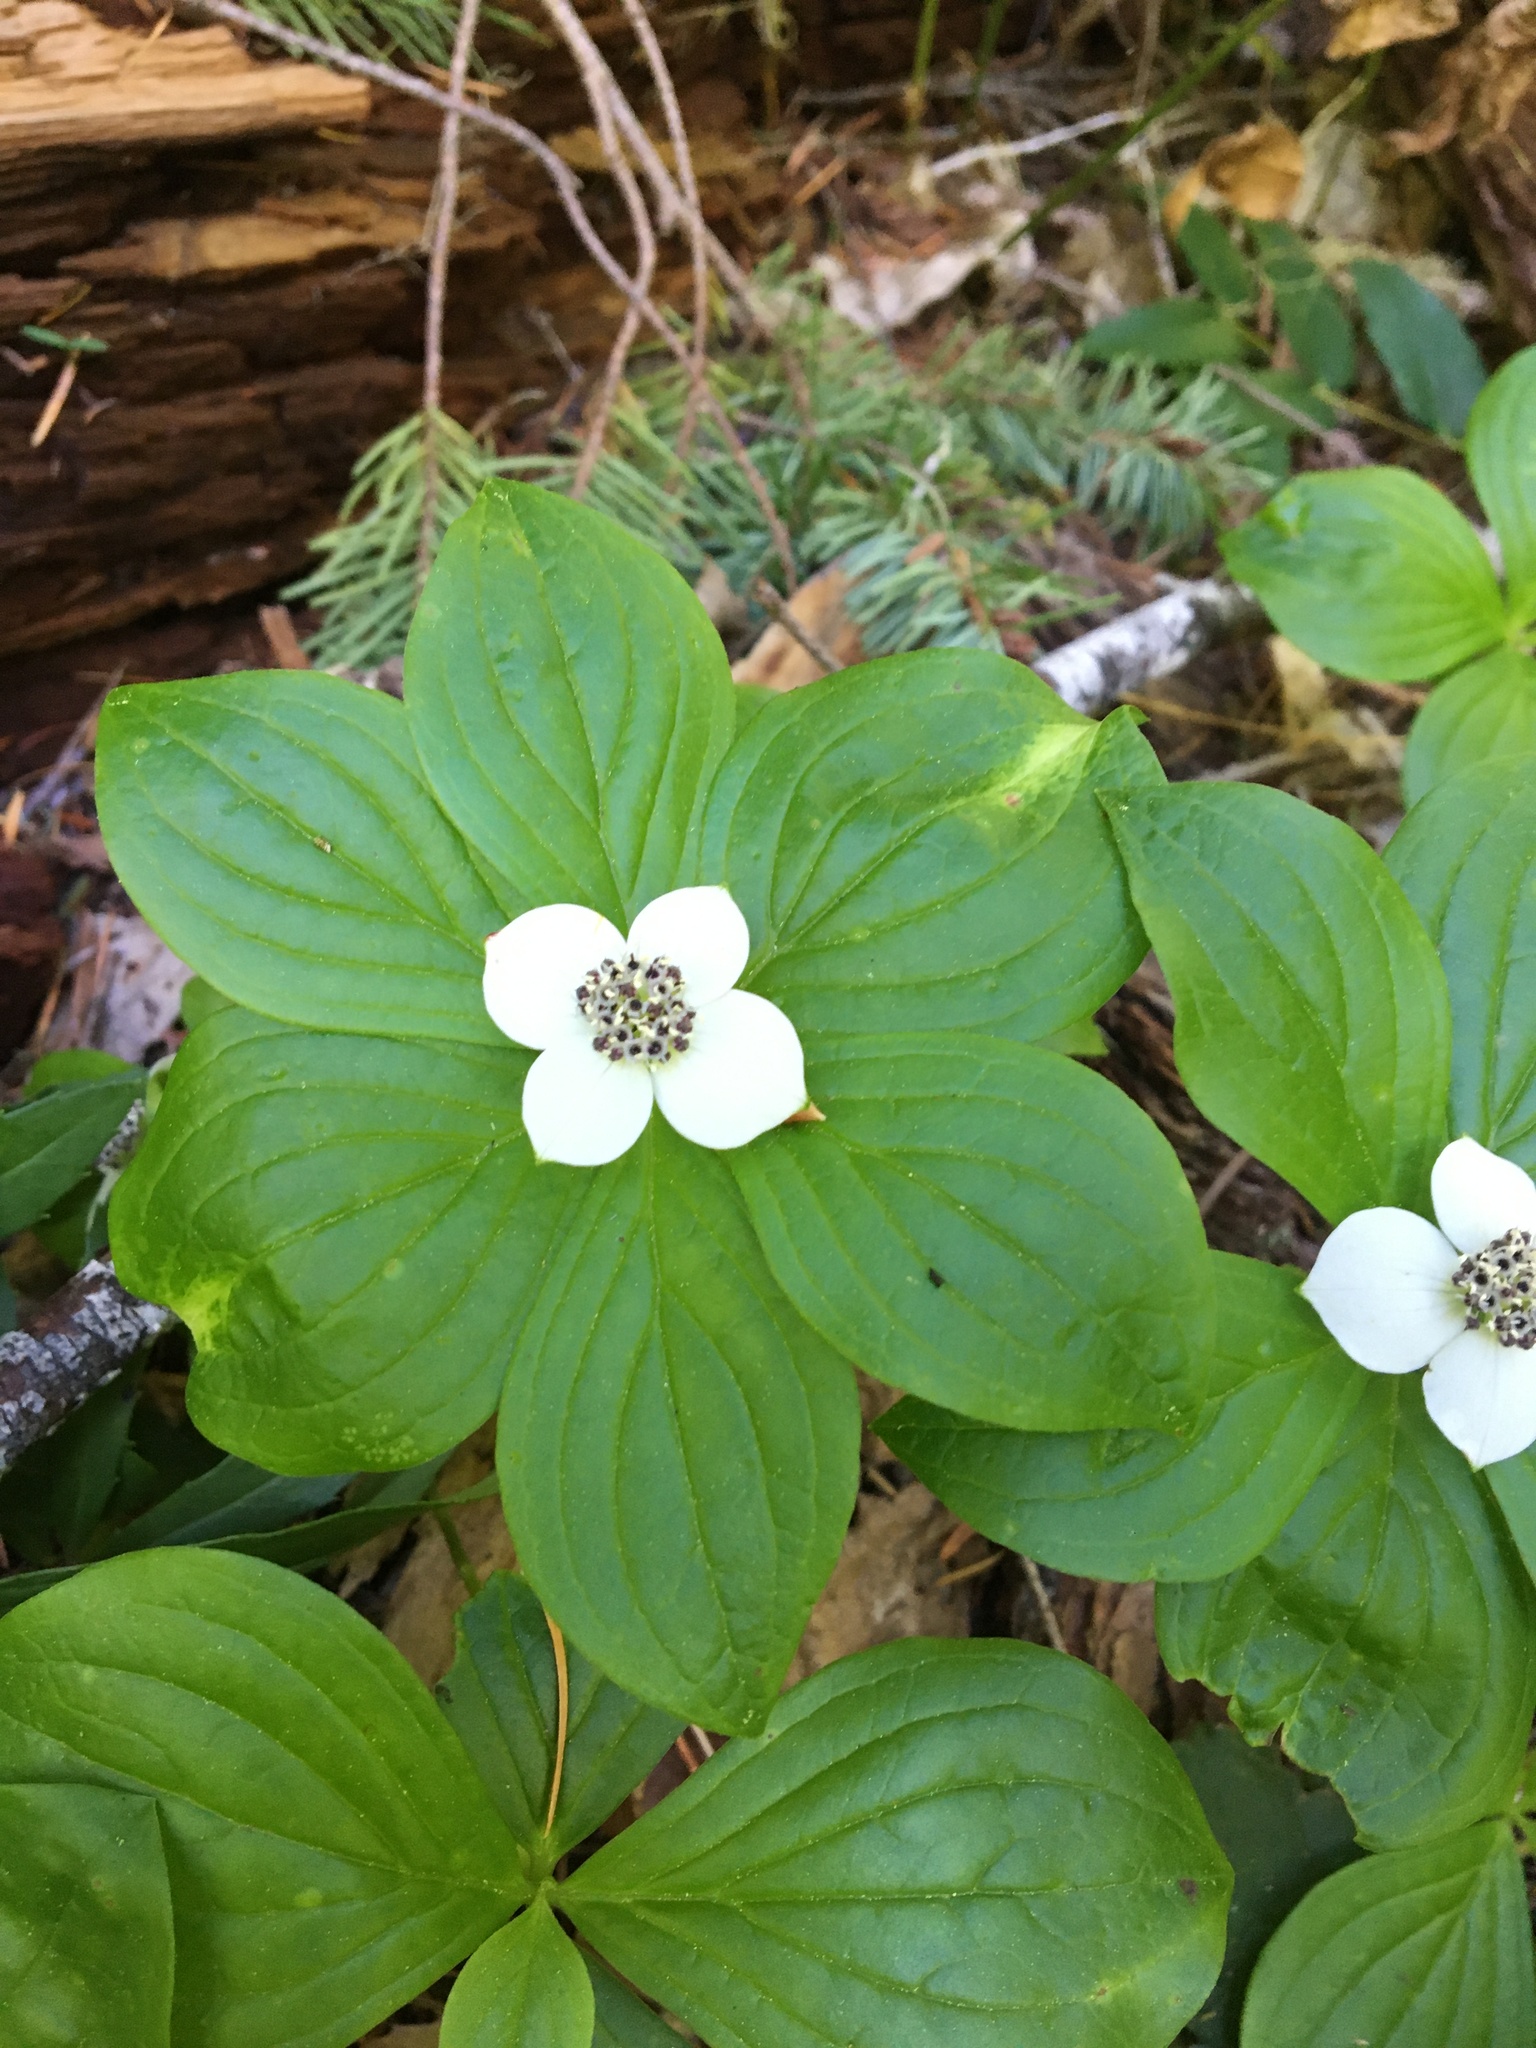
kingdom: Plantae
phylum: Tracheophyta
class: Magnoliopsida
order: Cornales
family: Cornaceae
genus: Cornus
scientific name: Cornus unalaschkensis
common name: Alaska bunchberry
